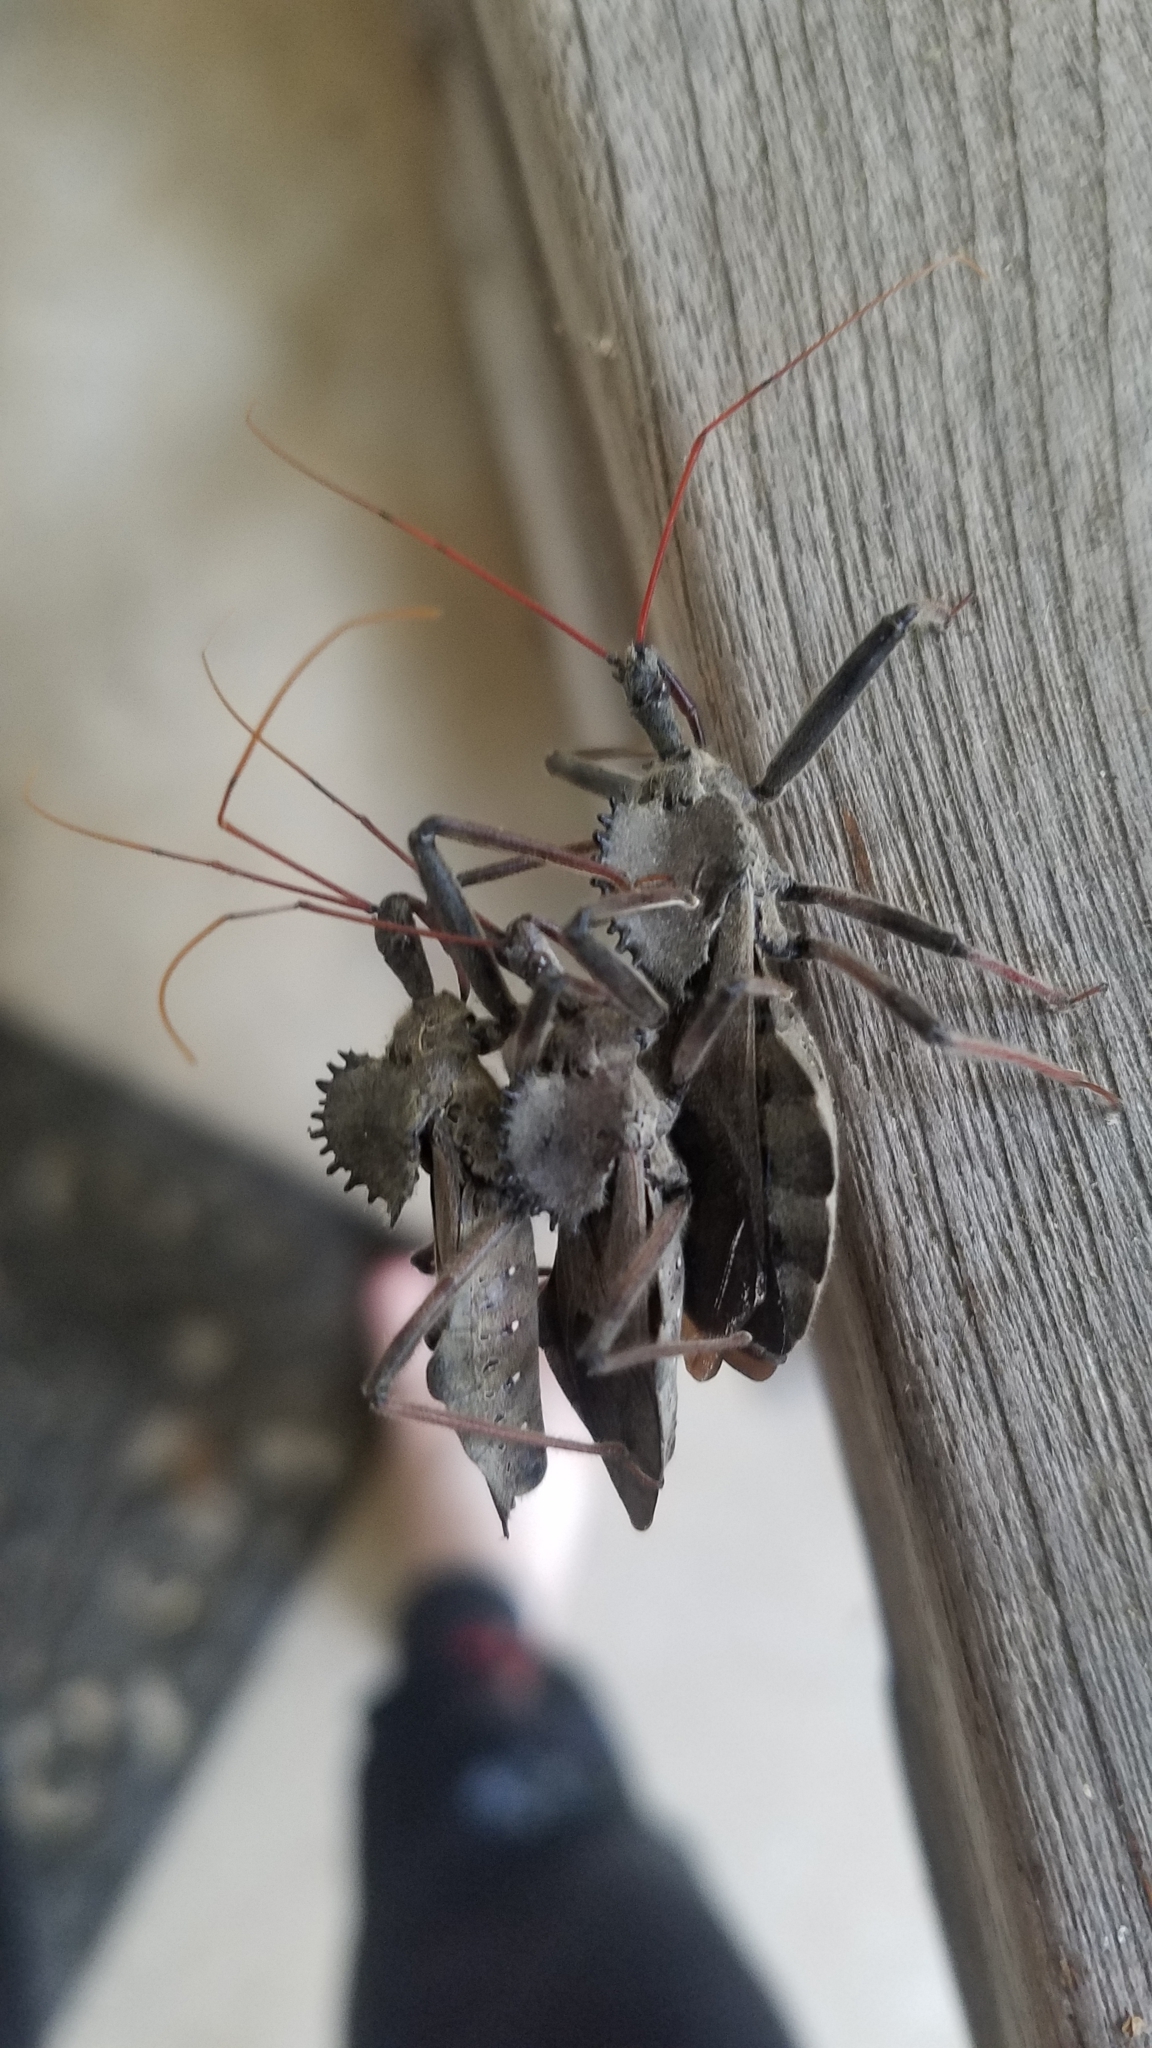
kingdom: Animalia
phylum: Arthropoda
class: Insecta
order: Hemiptera
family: Reduviidae
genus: Arilus
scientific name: Arilus cristatus
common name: North american wheel bug
